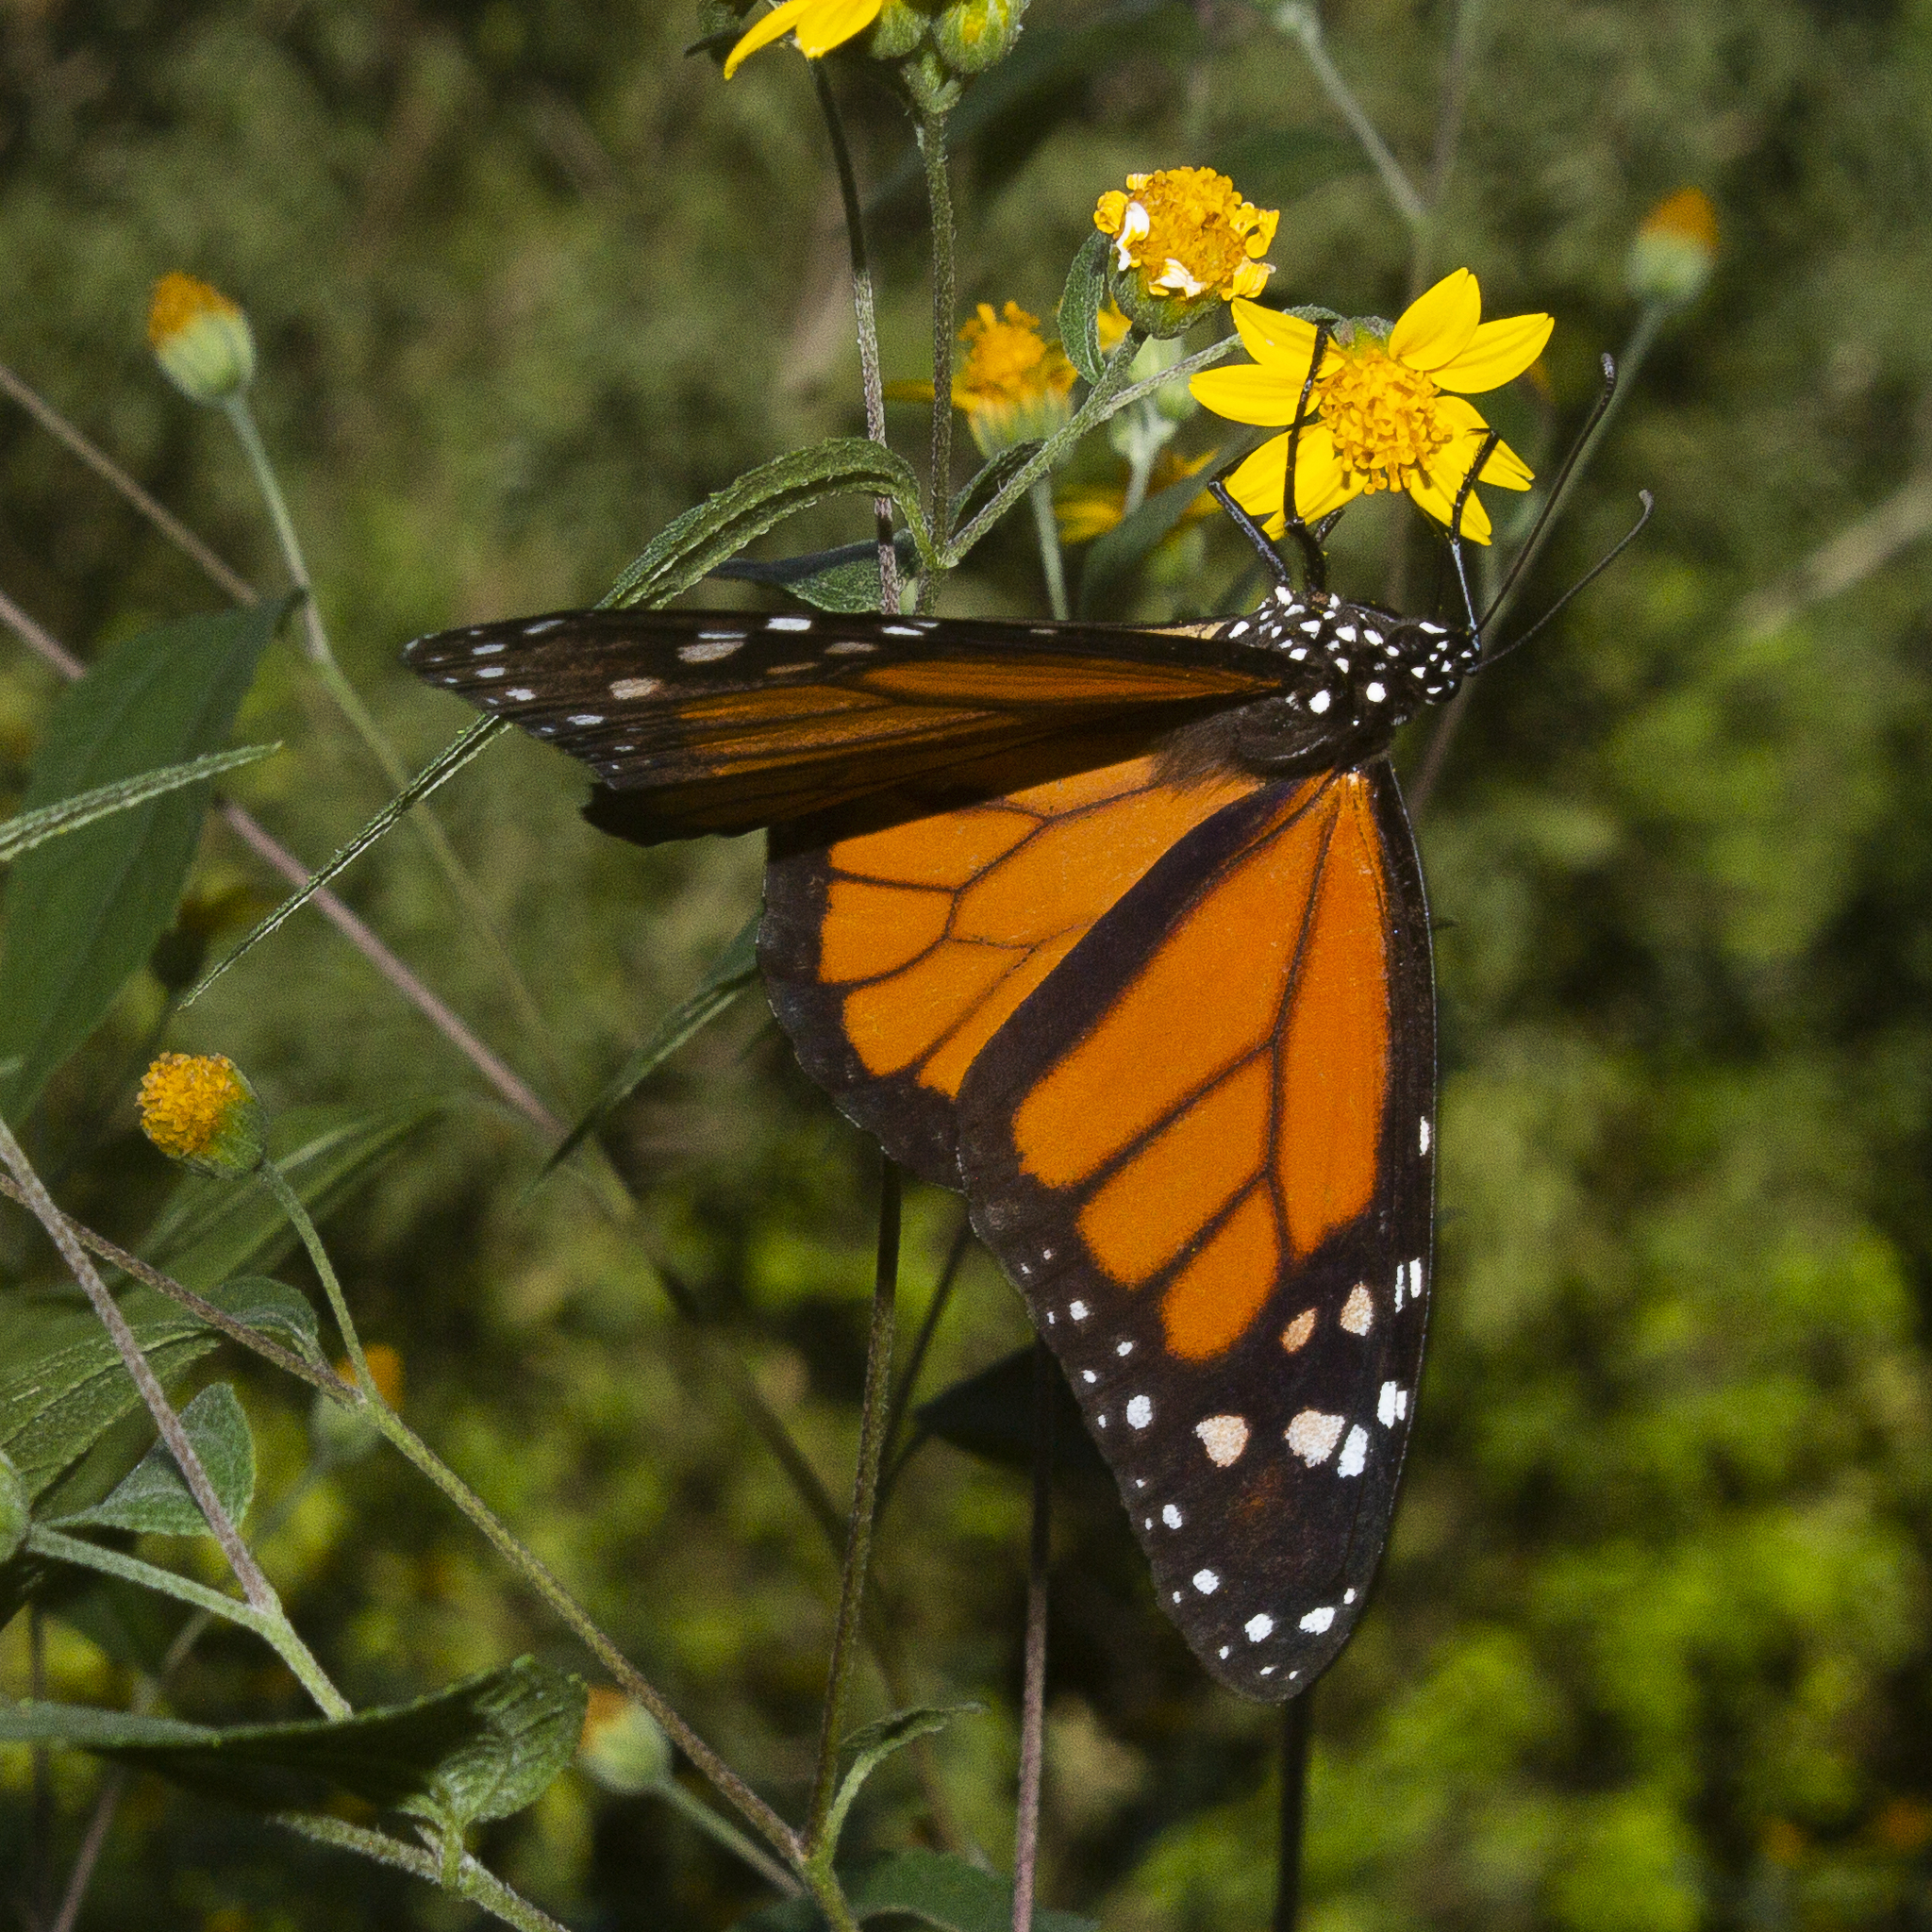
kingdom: Animalia
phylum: Arthropoda
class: Insecta
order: Lepidoptera
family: Nymphalidae
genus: Danaus
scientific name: Danaus plexippus
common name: Monarch
